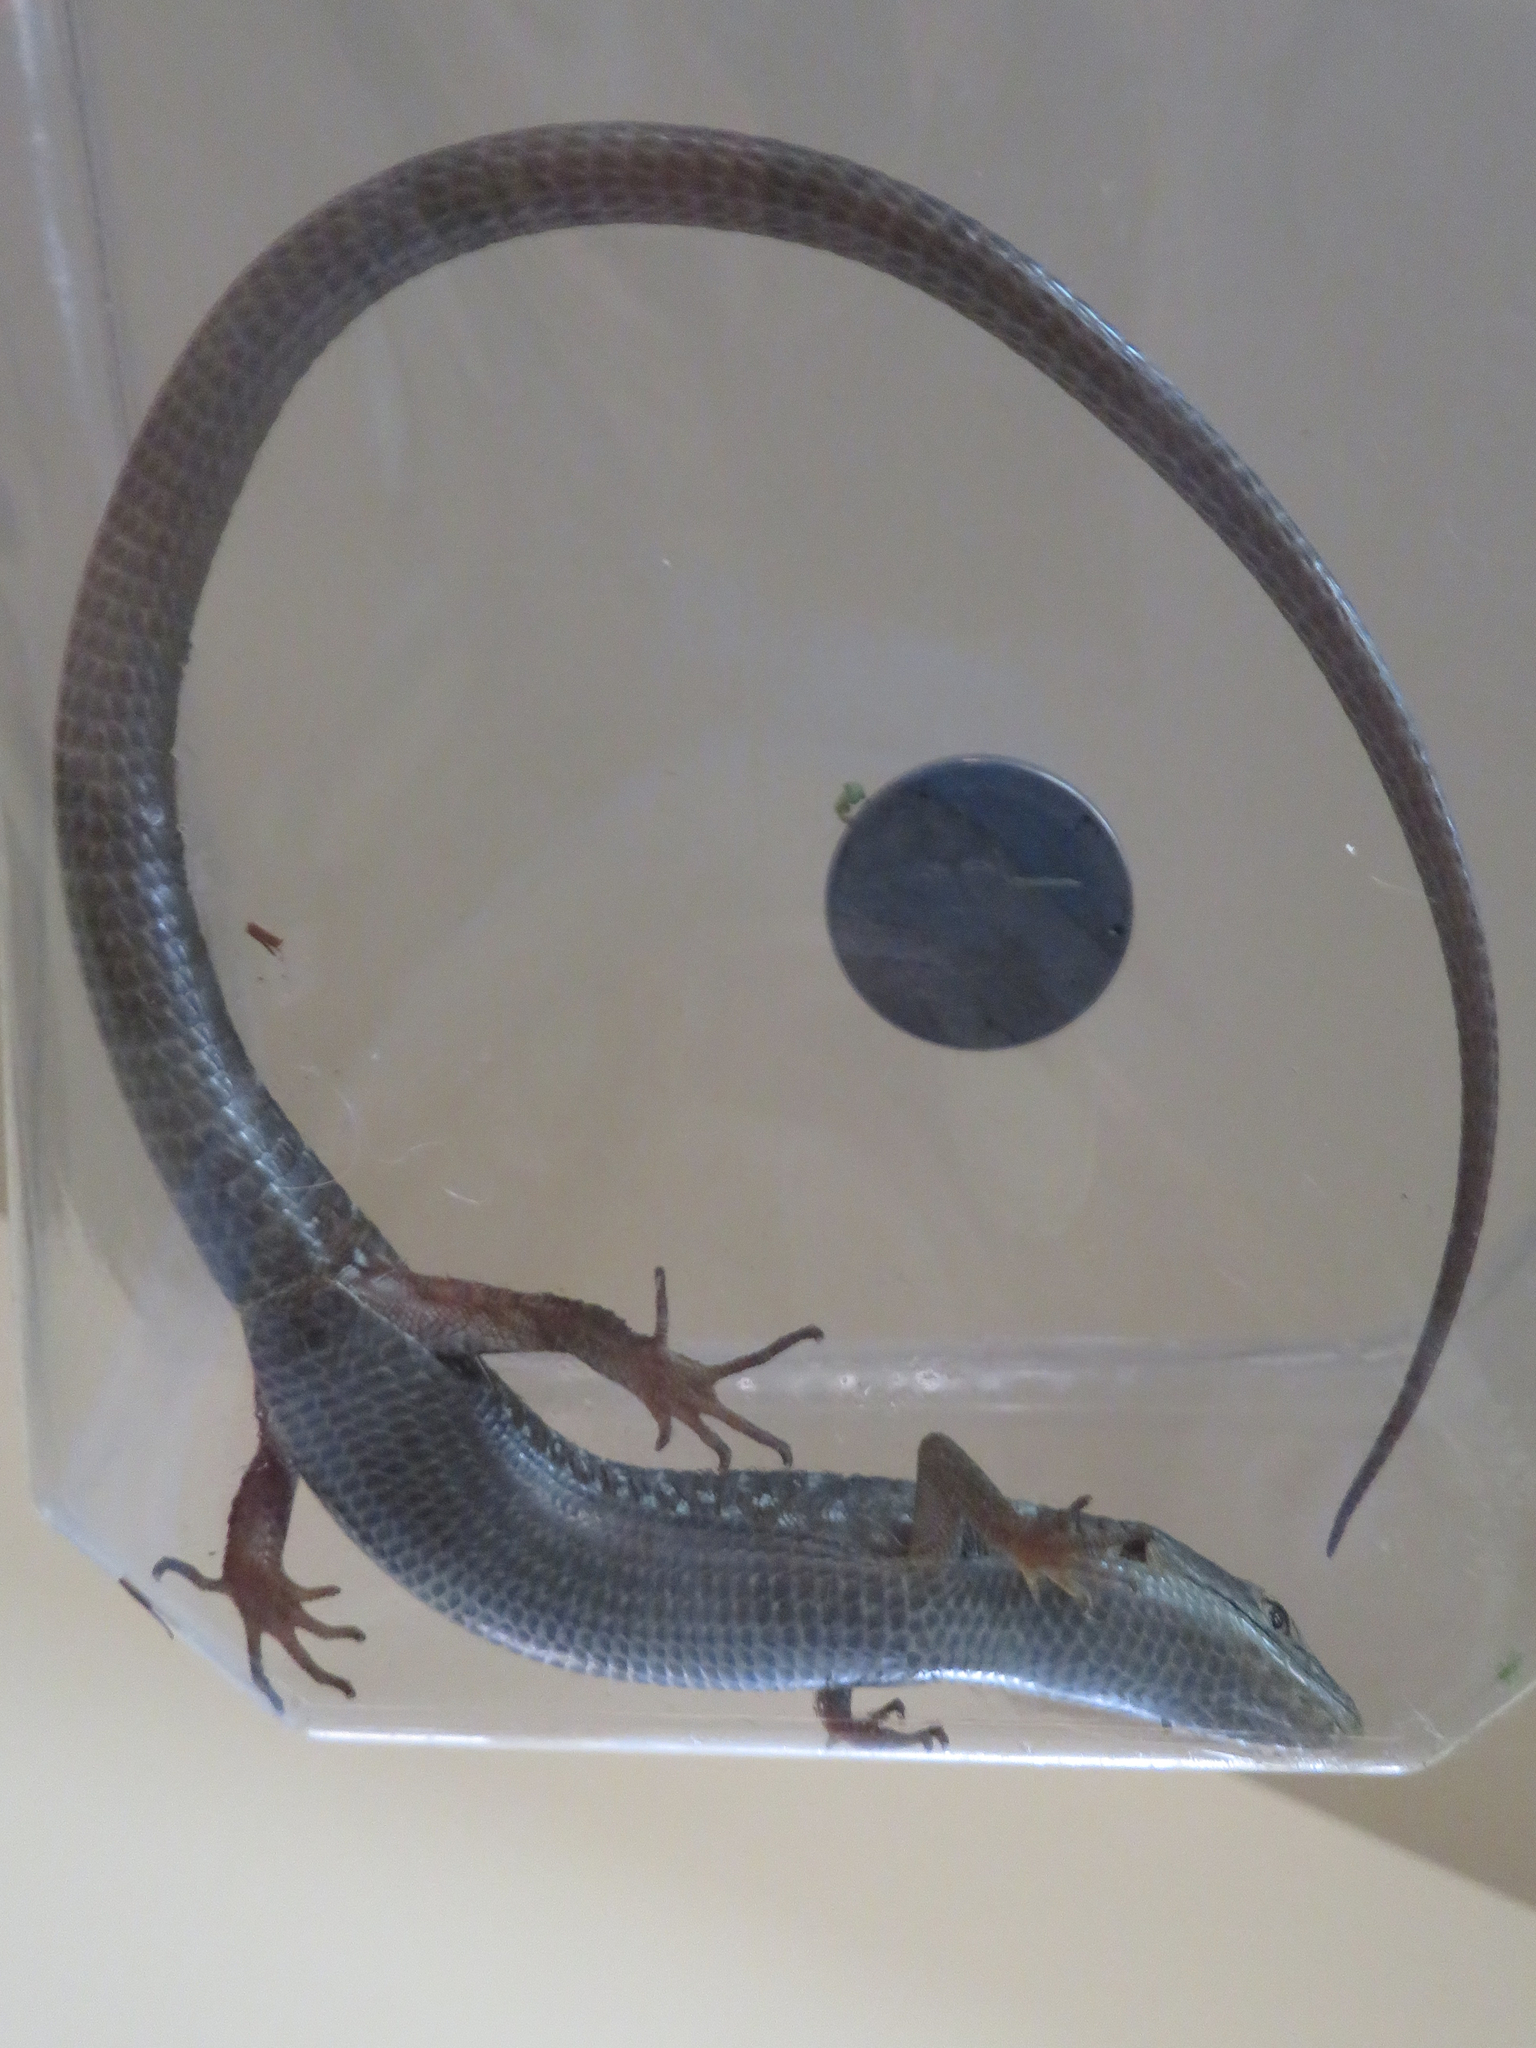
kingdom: Animalia
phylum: Chordata
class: Squamata
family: Anguidae
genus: Elgaria
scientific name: Elgaria multicarinata
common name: Southern alligator lizard
